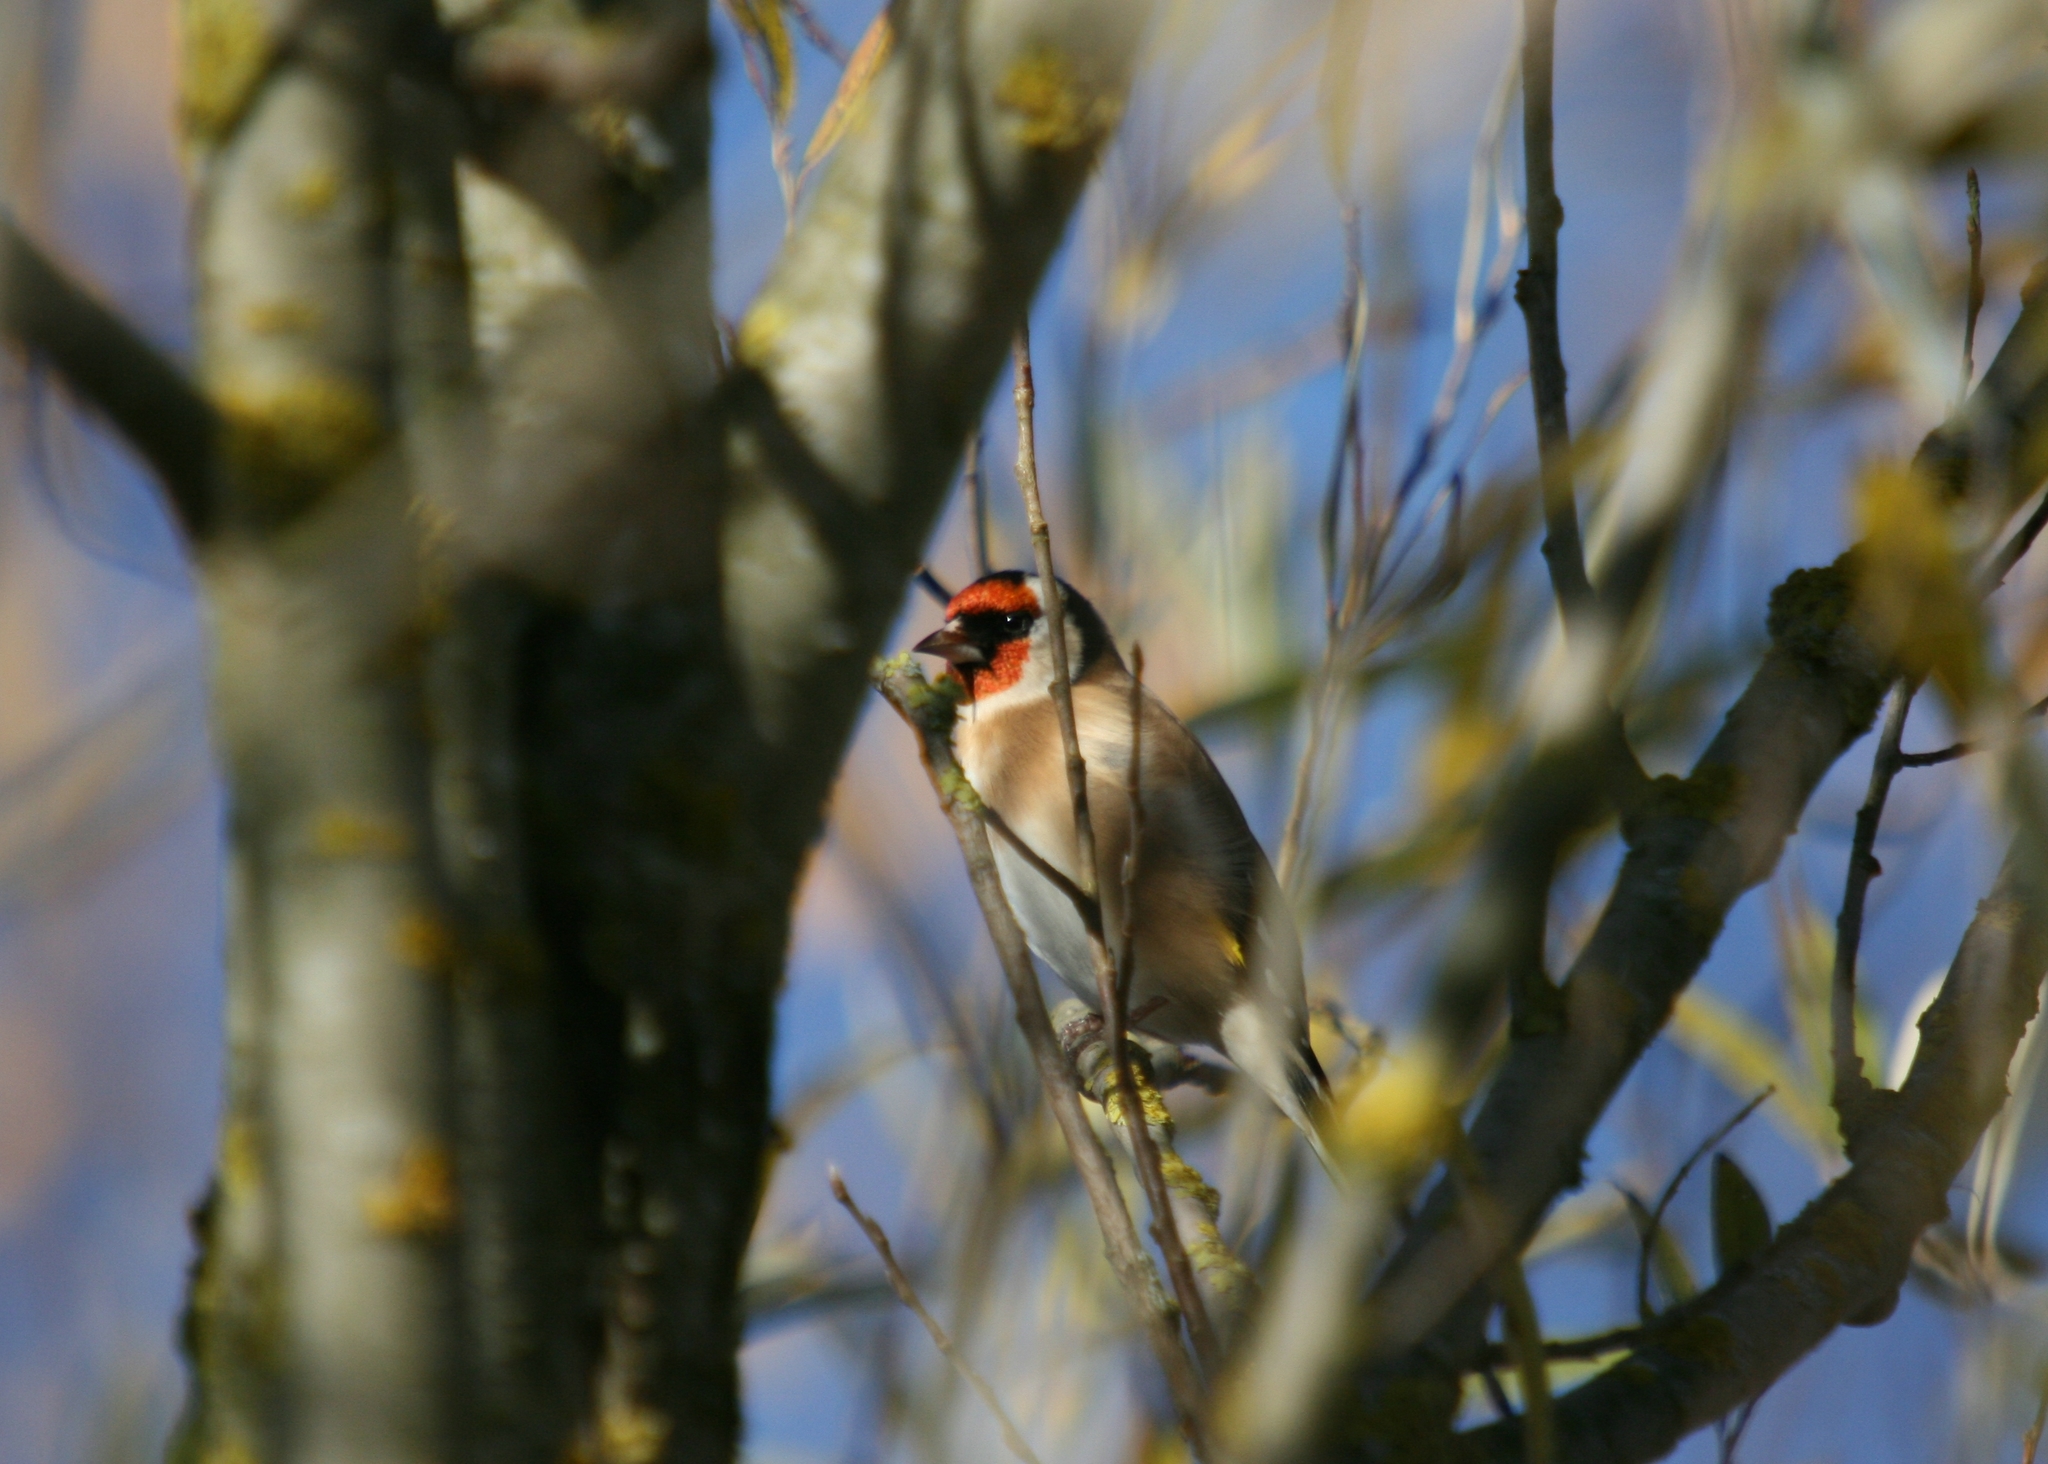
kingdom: Animalia
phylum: Chordata
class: Aves
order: Passeriformes
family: Fringillidae
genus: Carduelis
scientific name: Carduelis carduelis
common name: European goldfinch
